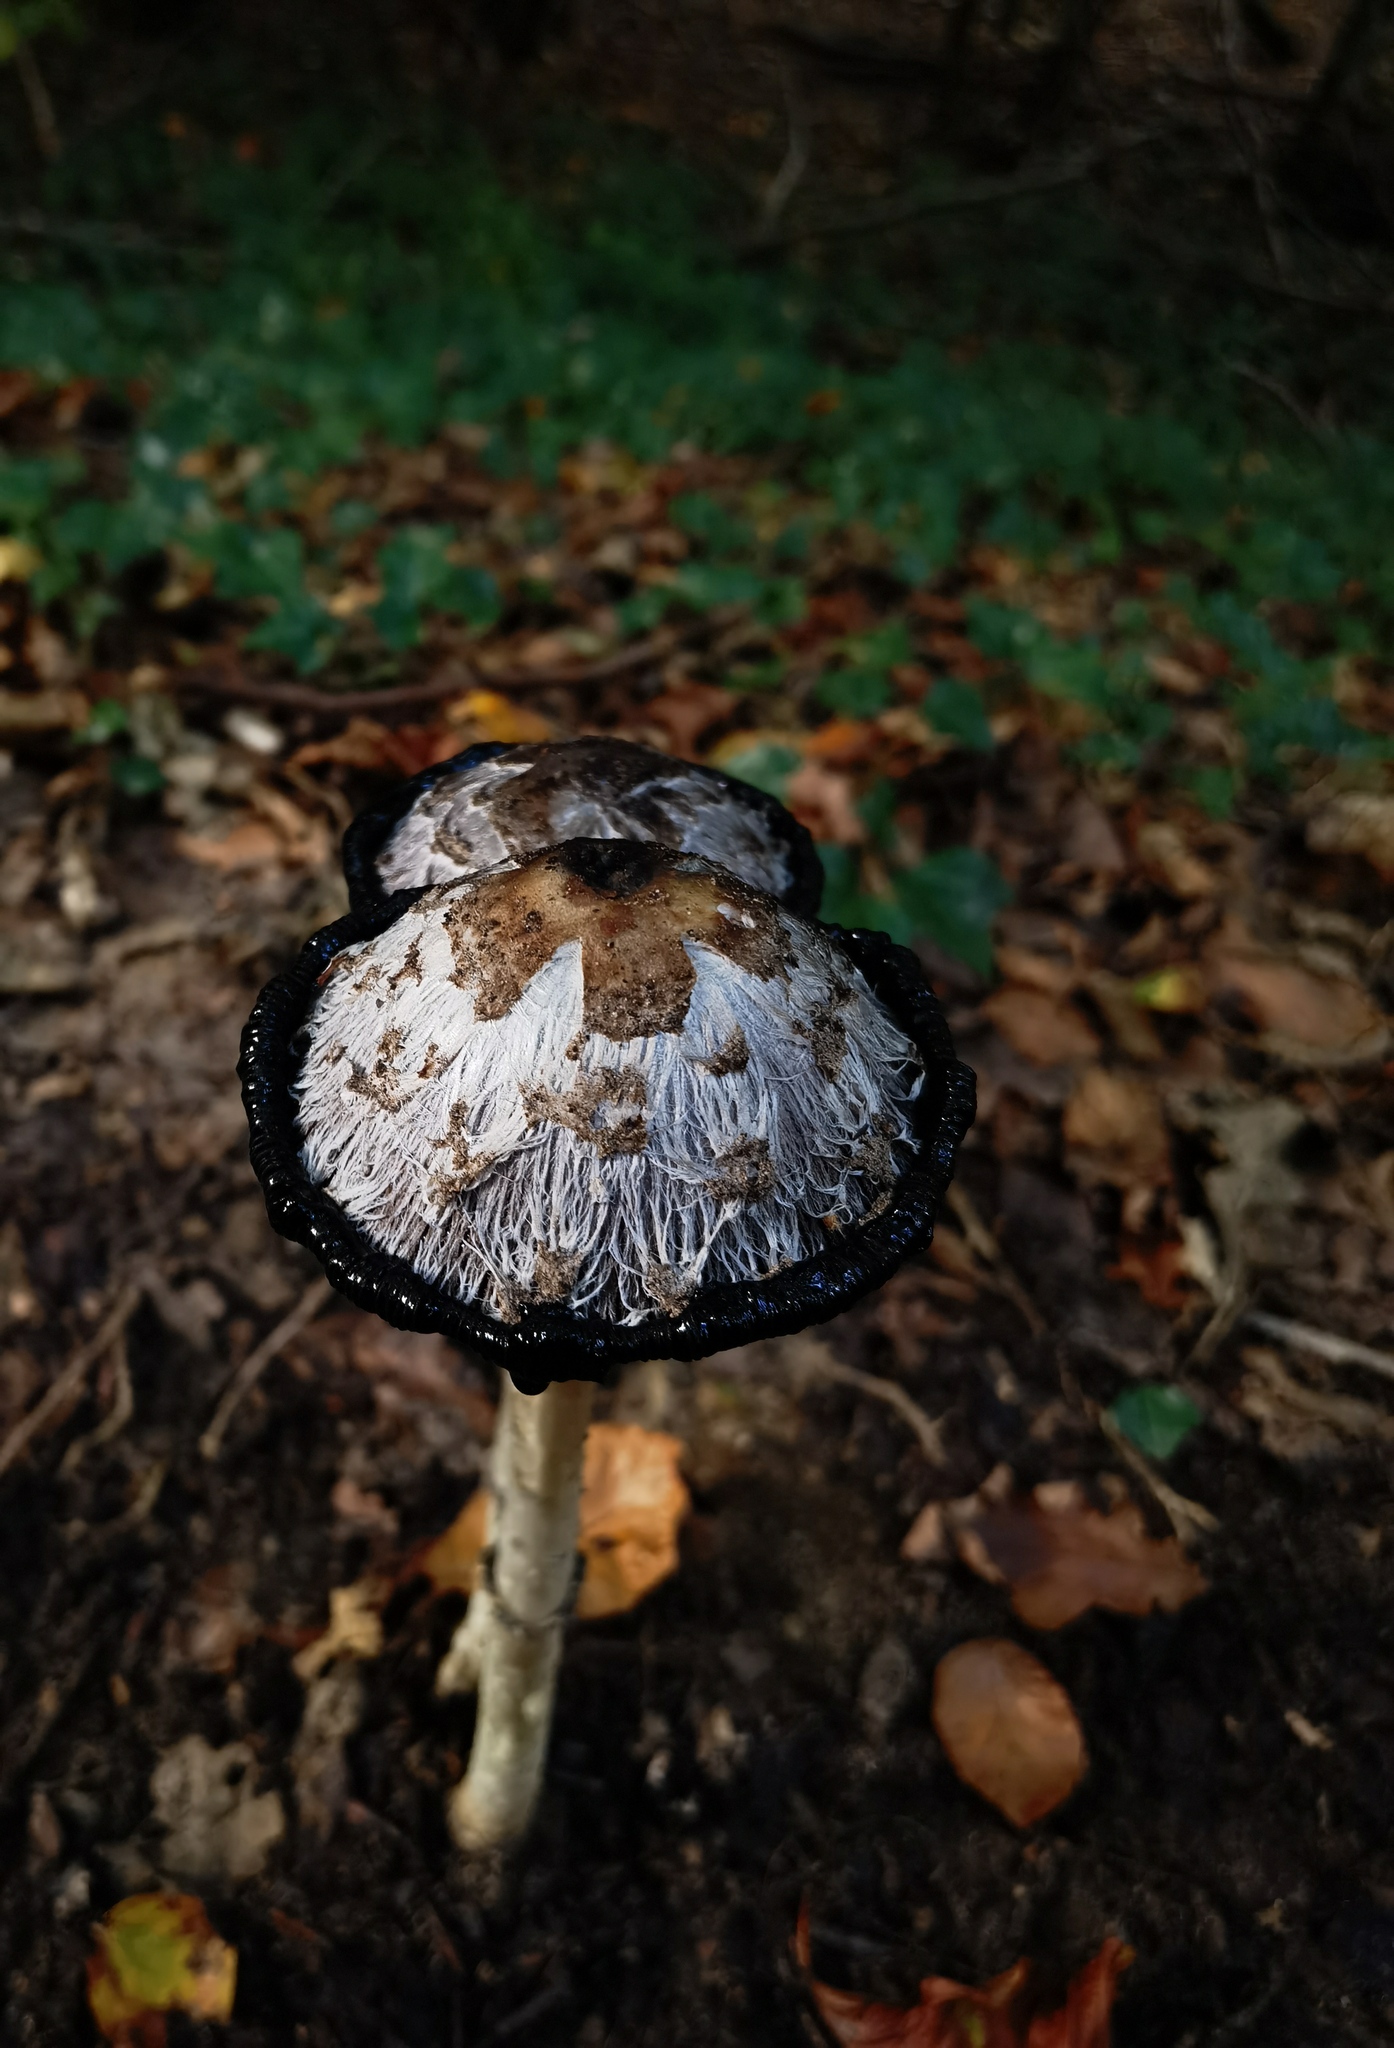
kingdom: Fungi
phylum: Basidiomycota
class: Agaricomycetes
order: Agaricales
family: Agaricaceae
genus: Coprinus
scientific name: Coprinus comatus
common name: Lawyer's wig
